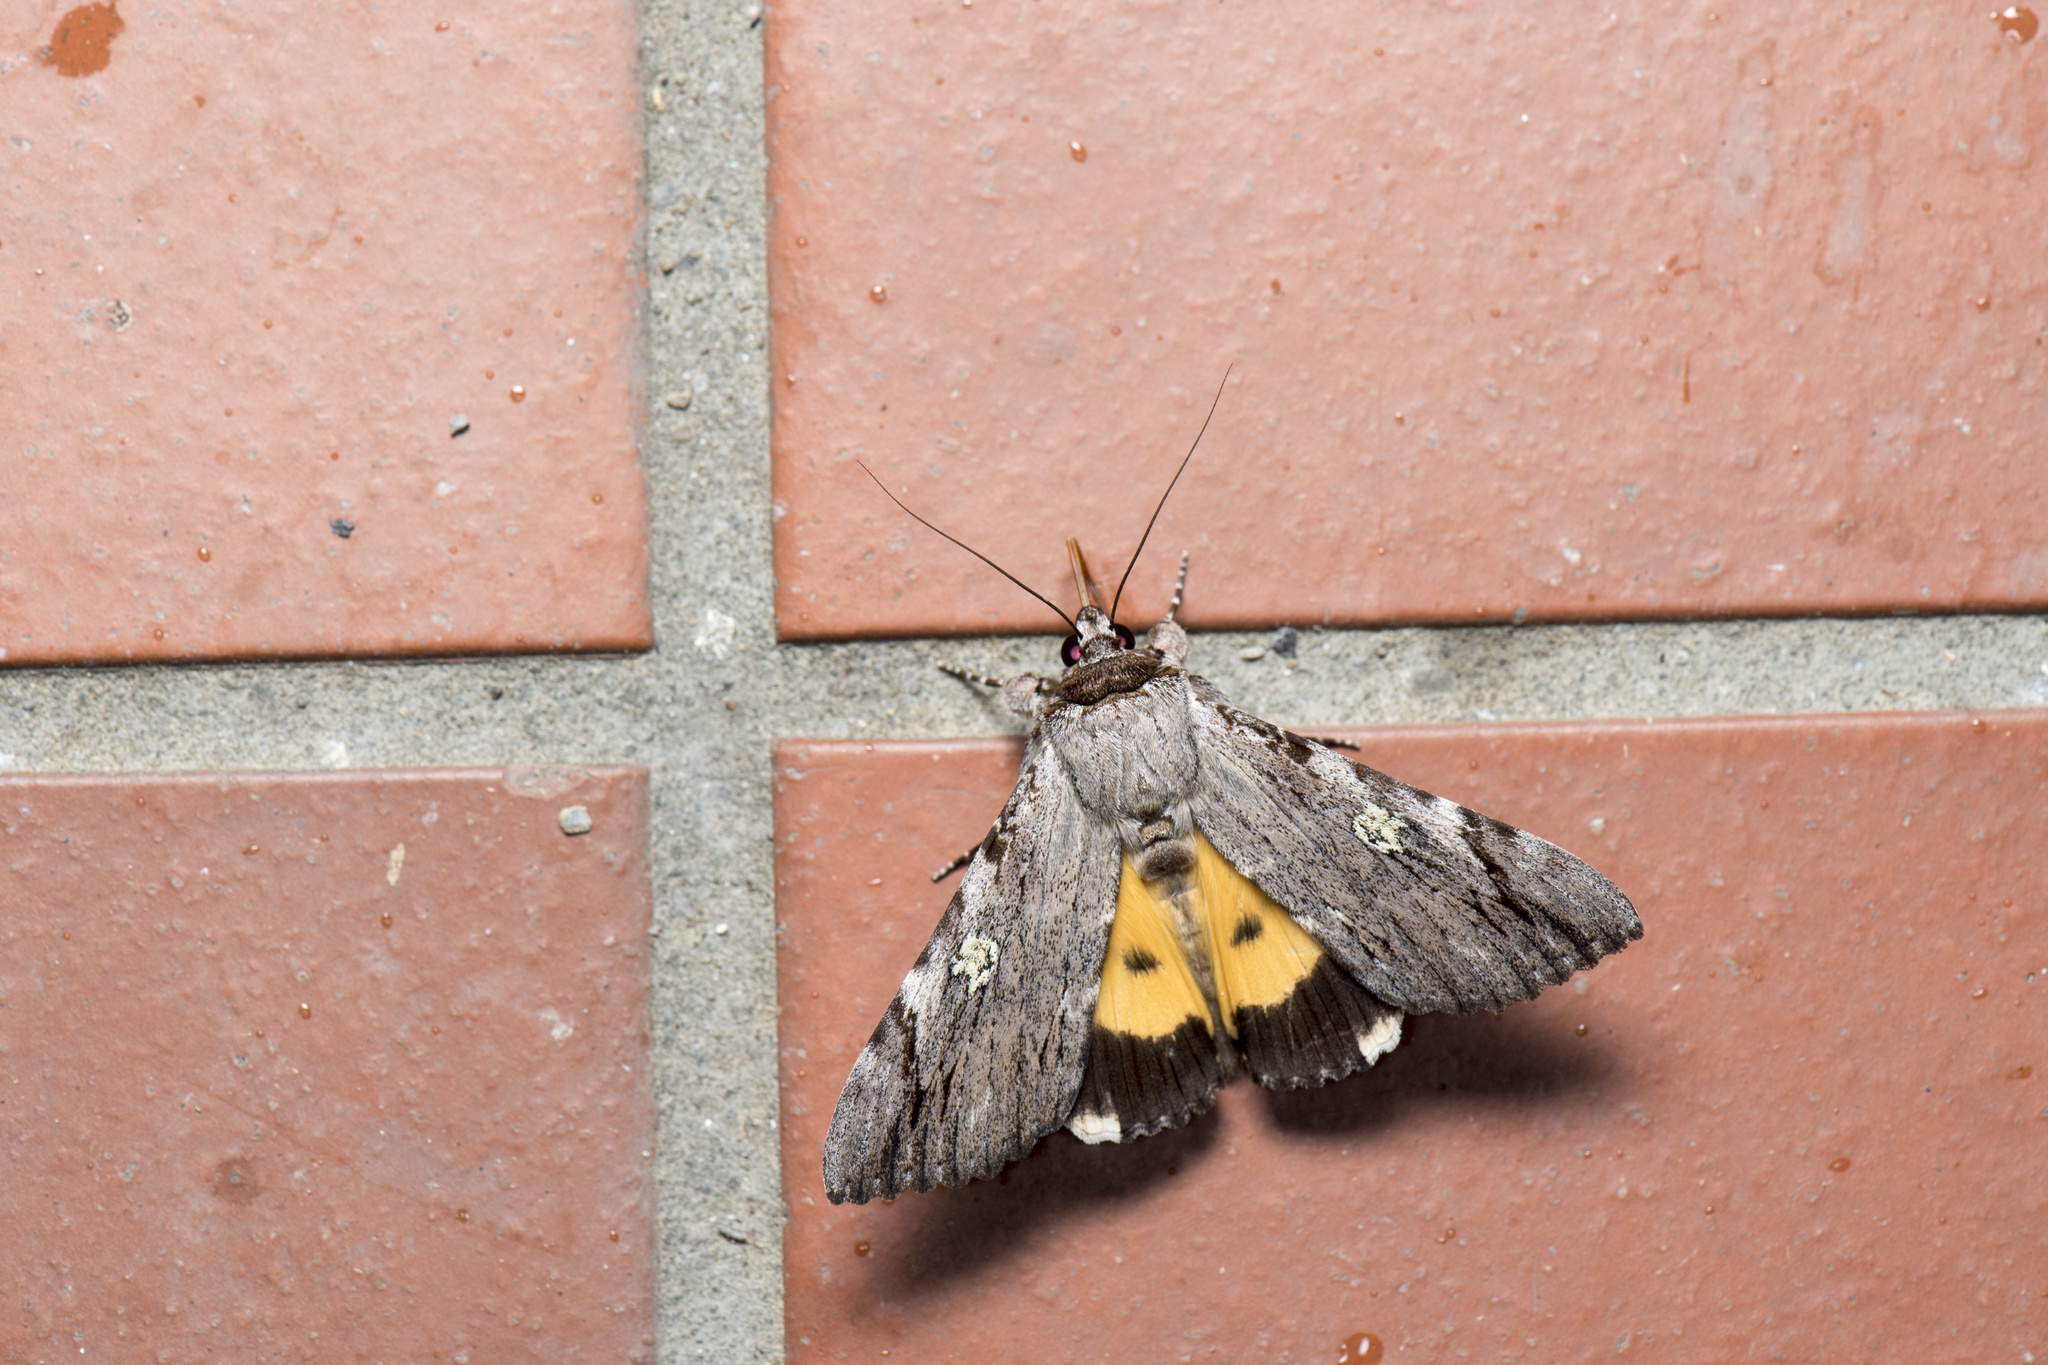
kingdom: Animalia
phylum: Arthropoda
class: Insecta
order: Lepidoptera
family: Erebidae
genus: Catocala
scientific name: Catocala macula
